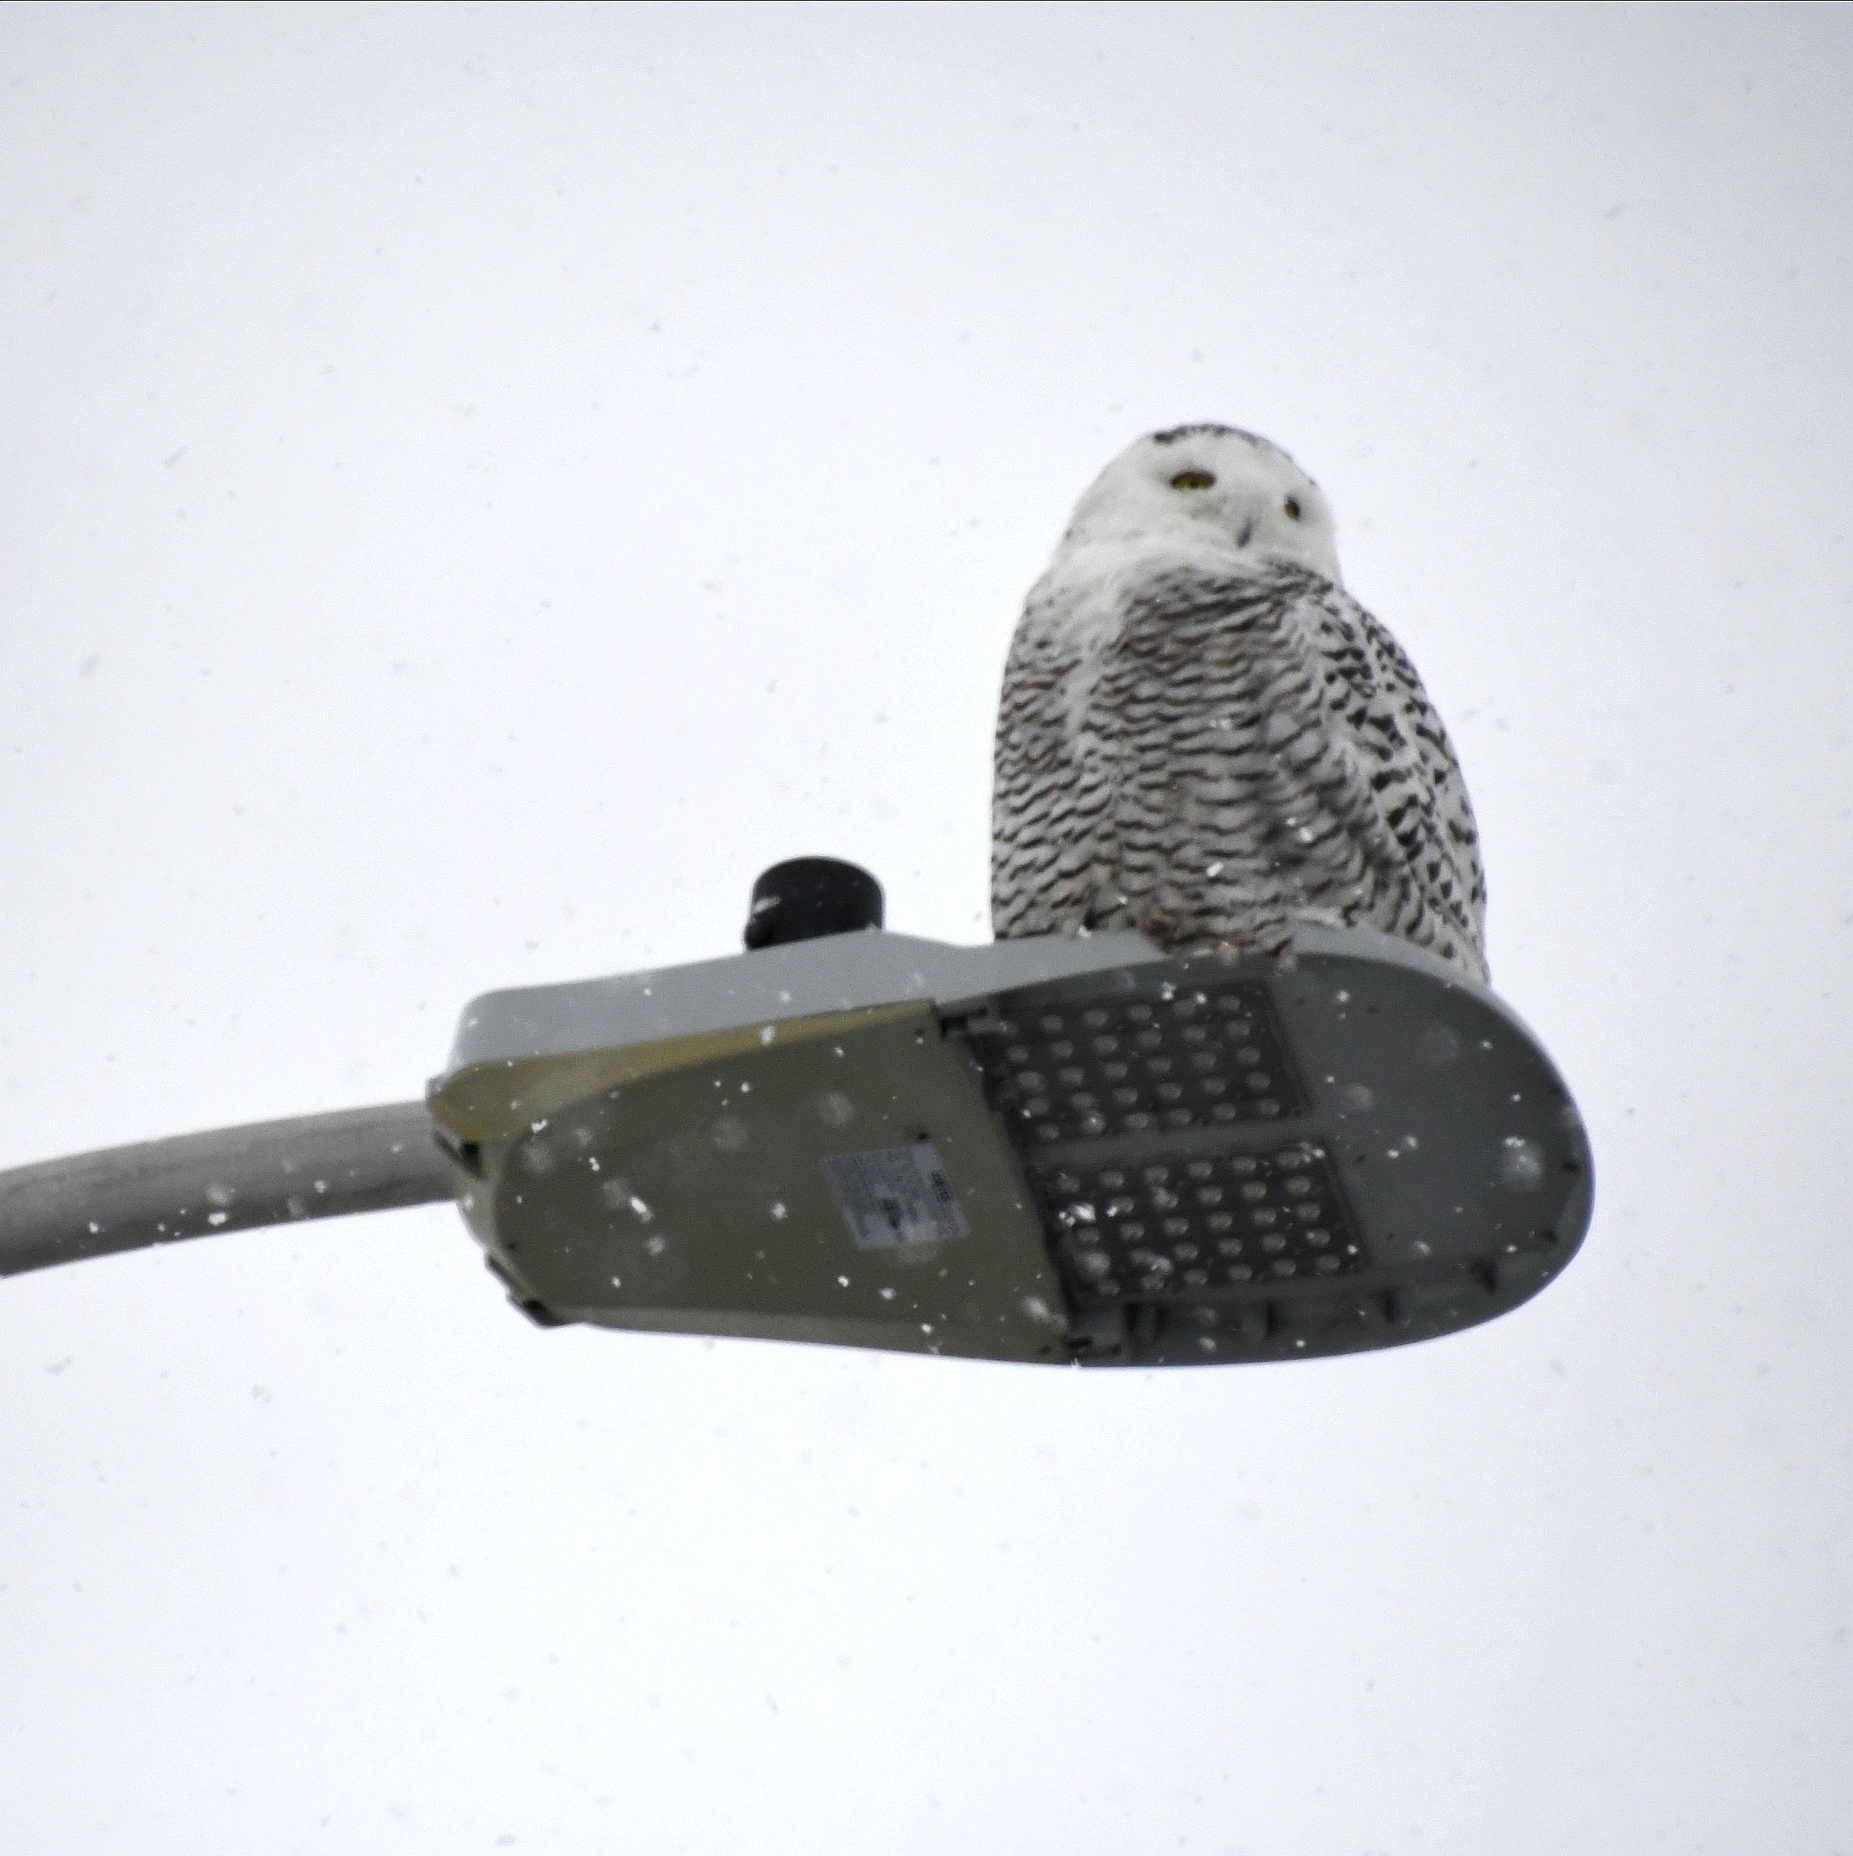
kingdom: Animalia
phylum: Chordata
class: Aves
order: Strigiformes
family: Strigidae
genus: Bubo
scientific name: Bubo scandiacus
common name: Snowy owl
